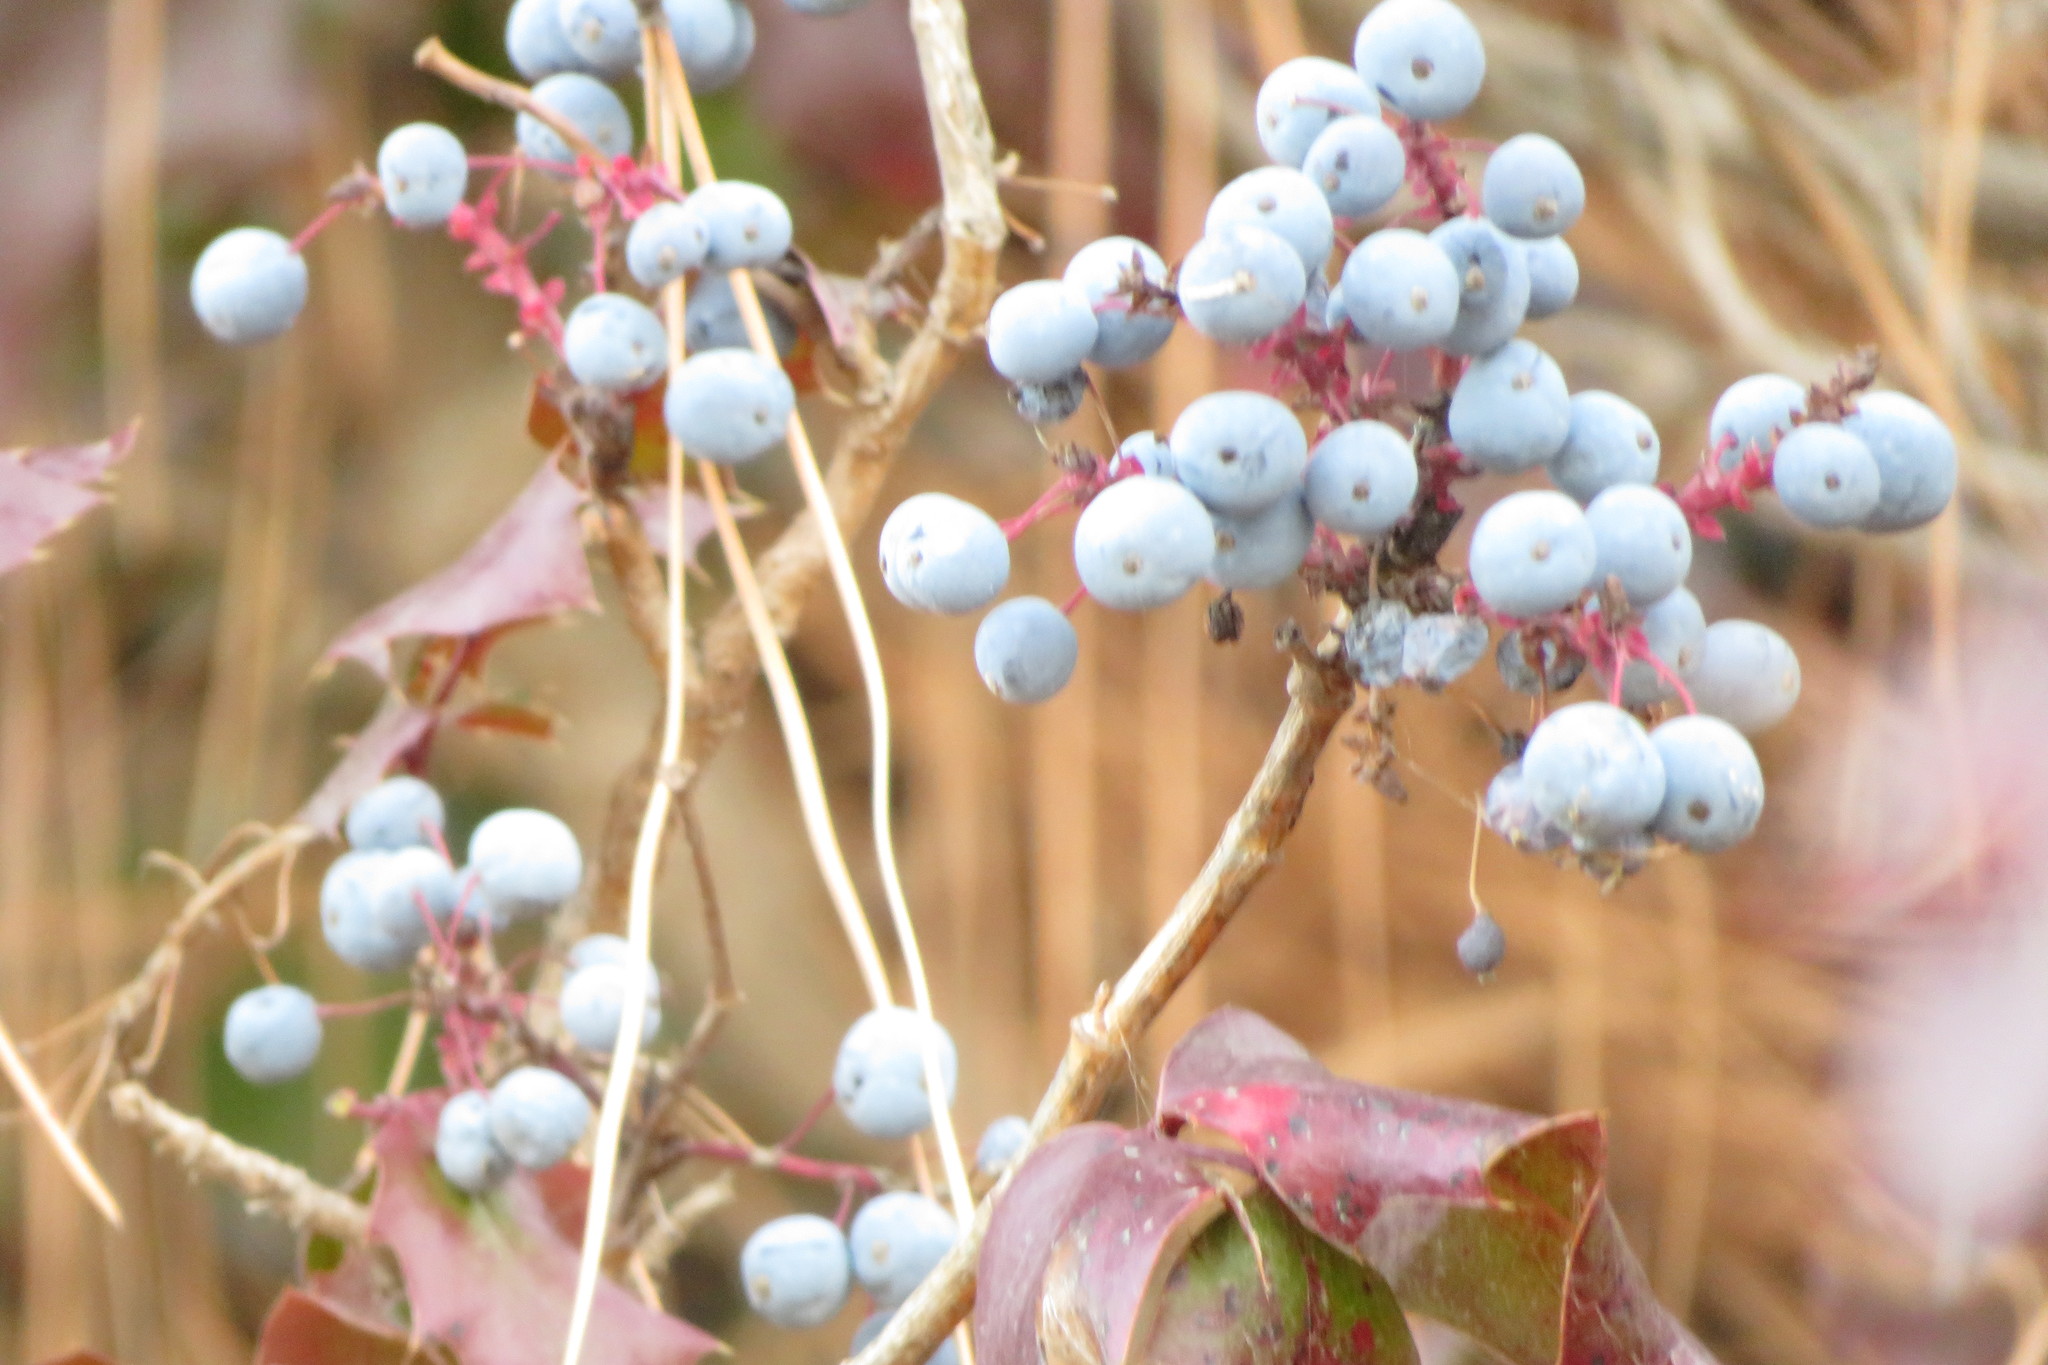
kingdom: Plantae
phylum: Tracheophyta
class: Magnoliopsida
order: Ranunculales
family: Berberidaceae
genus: Mahonia
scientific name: Mahonia aquifolium
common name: Oregon-grape
